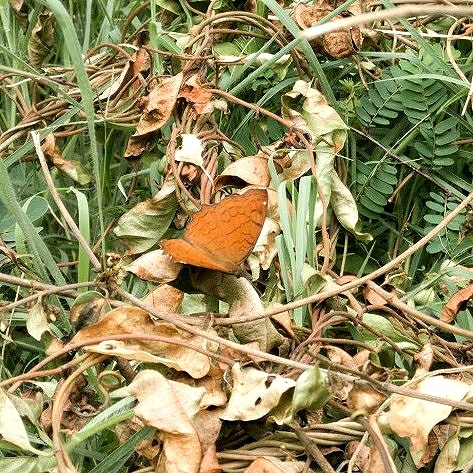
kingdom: Animalia
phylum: Arthropoda
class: Insecta
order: Lepidoptera
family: Nymphalidae
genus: Ariadne
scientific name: Ariadne ariadne
